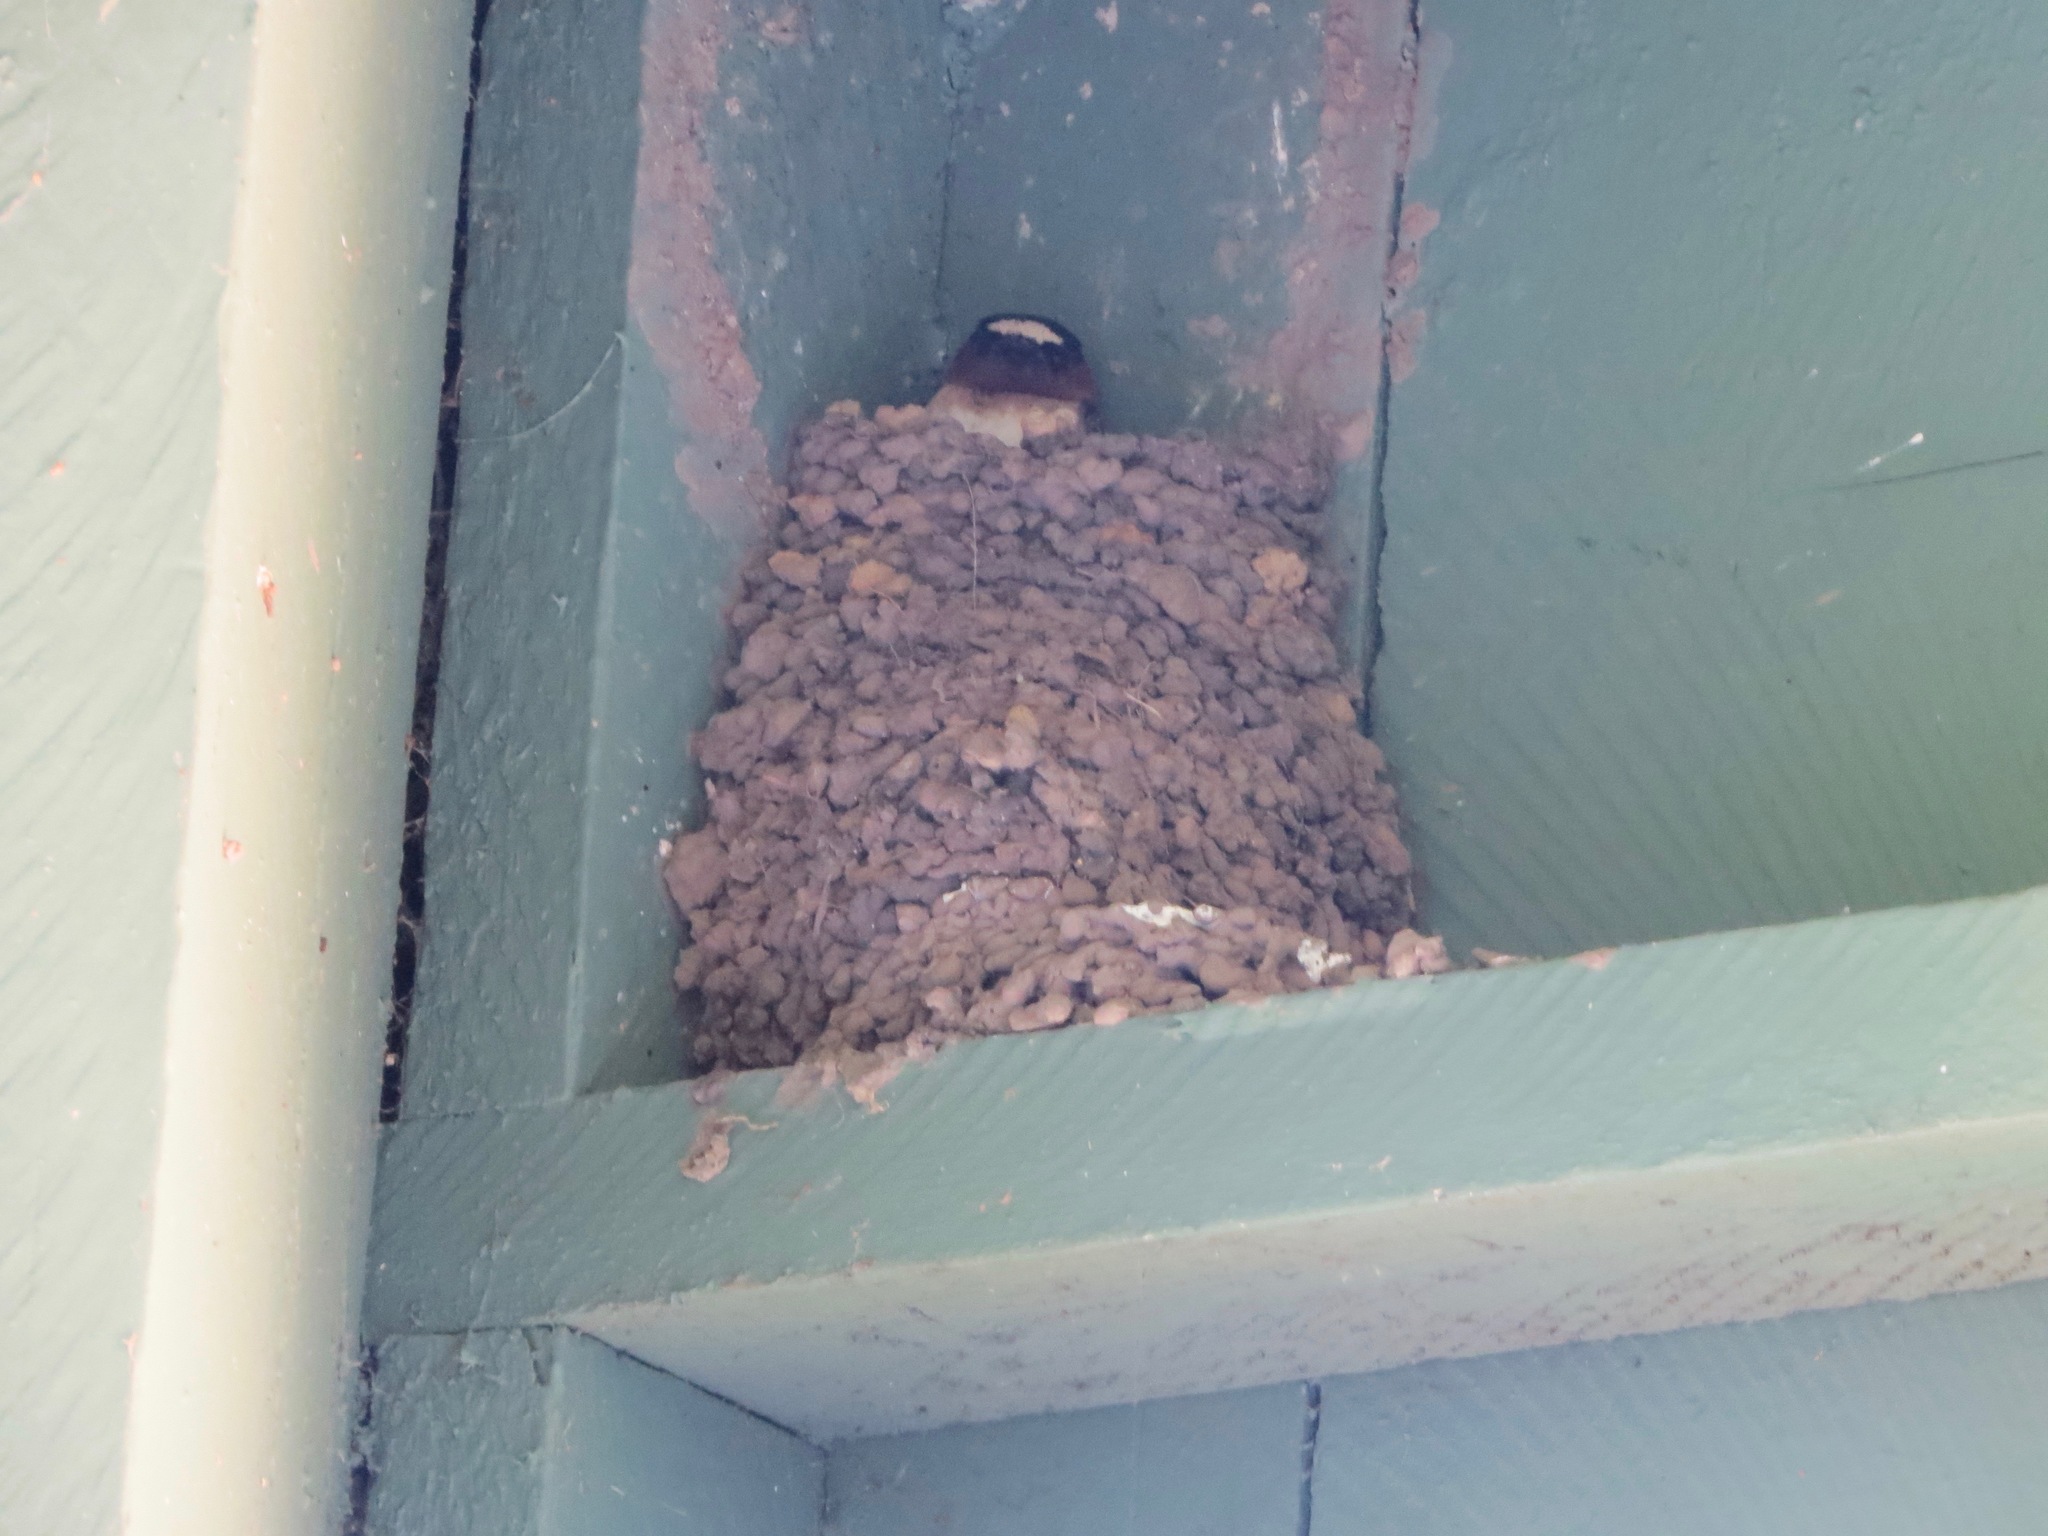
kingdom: Animalia
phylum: Chordata
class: Aves
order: Passeriformes
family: Hirundinidae
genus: Petrochelidon
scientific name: Petrochelidon pyrrhonota
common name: American cliff swallow
